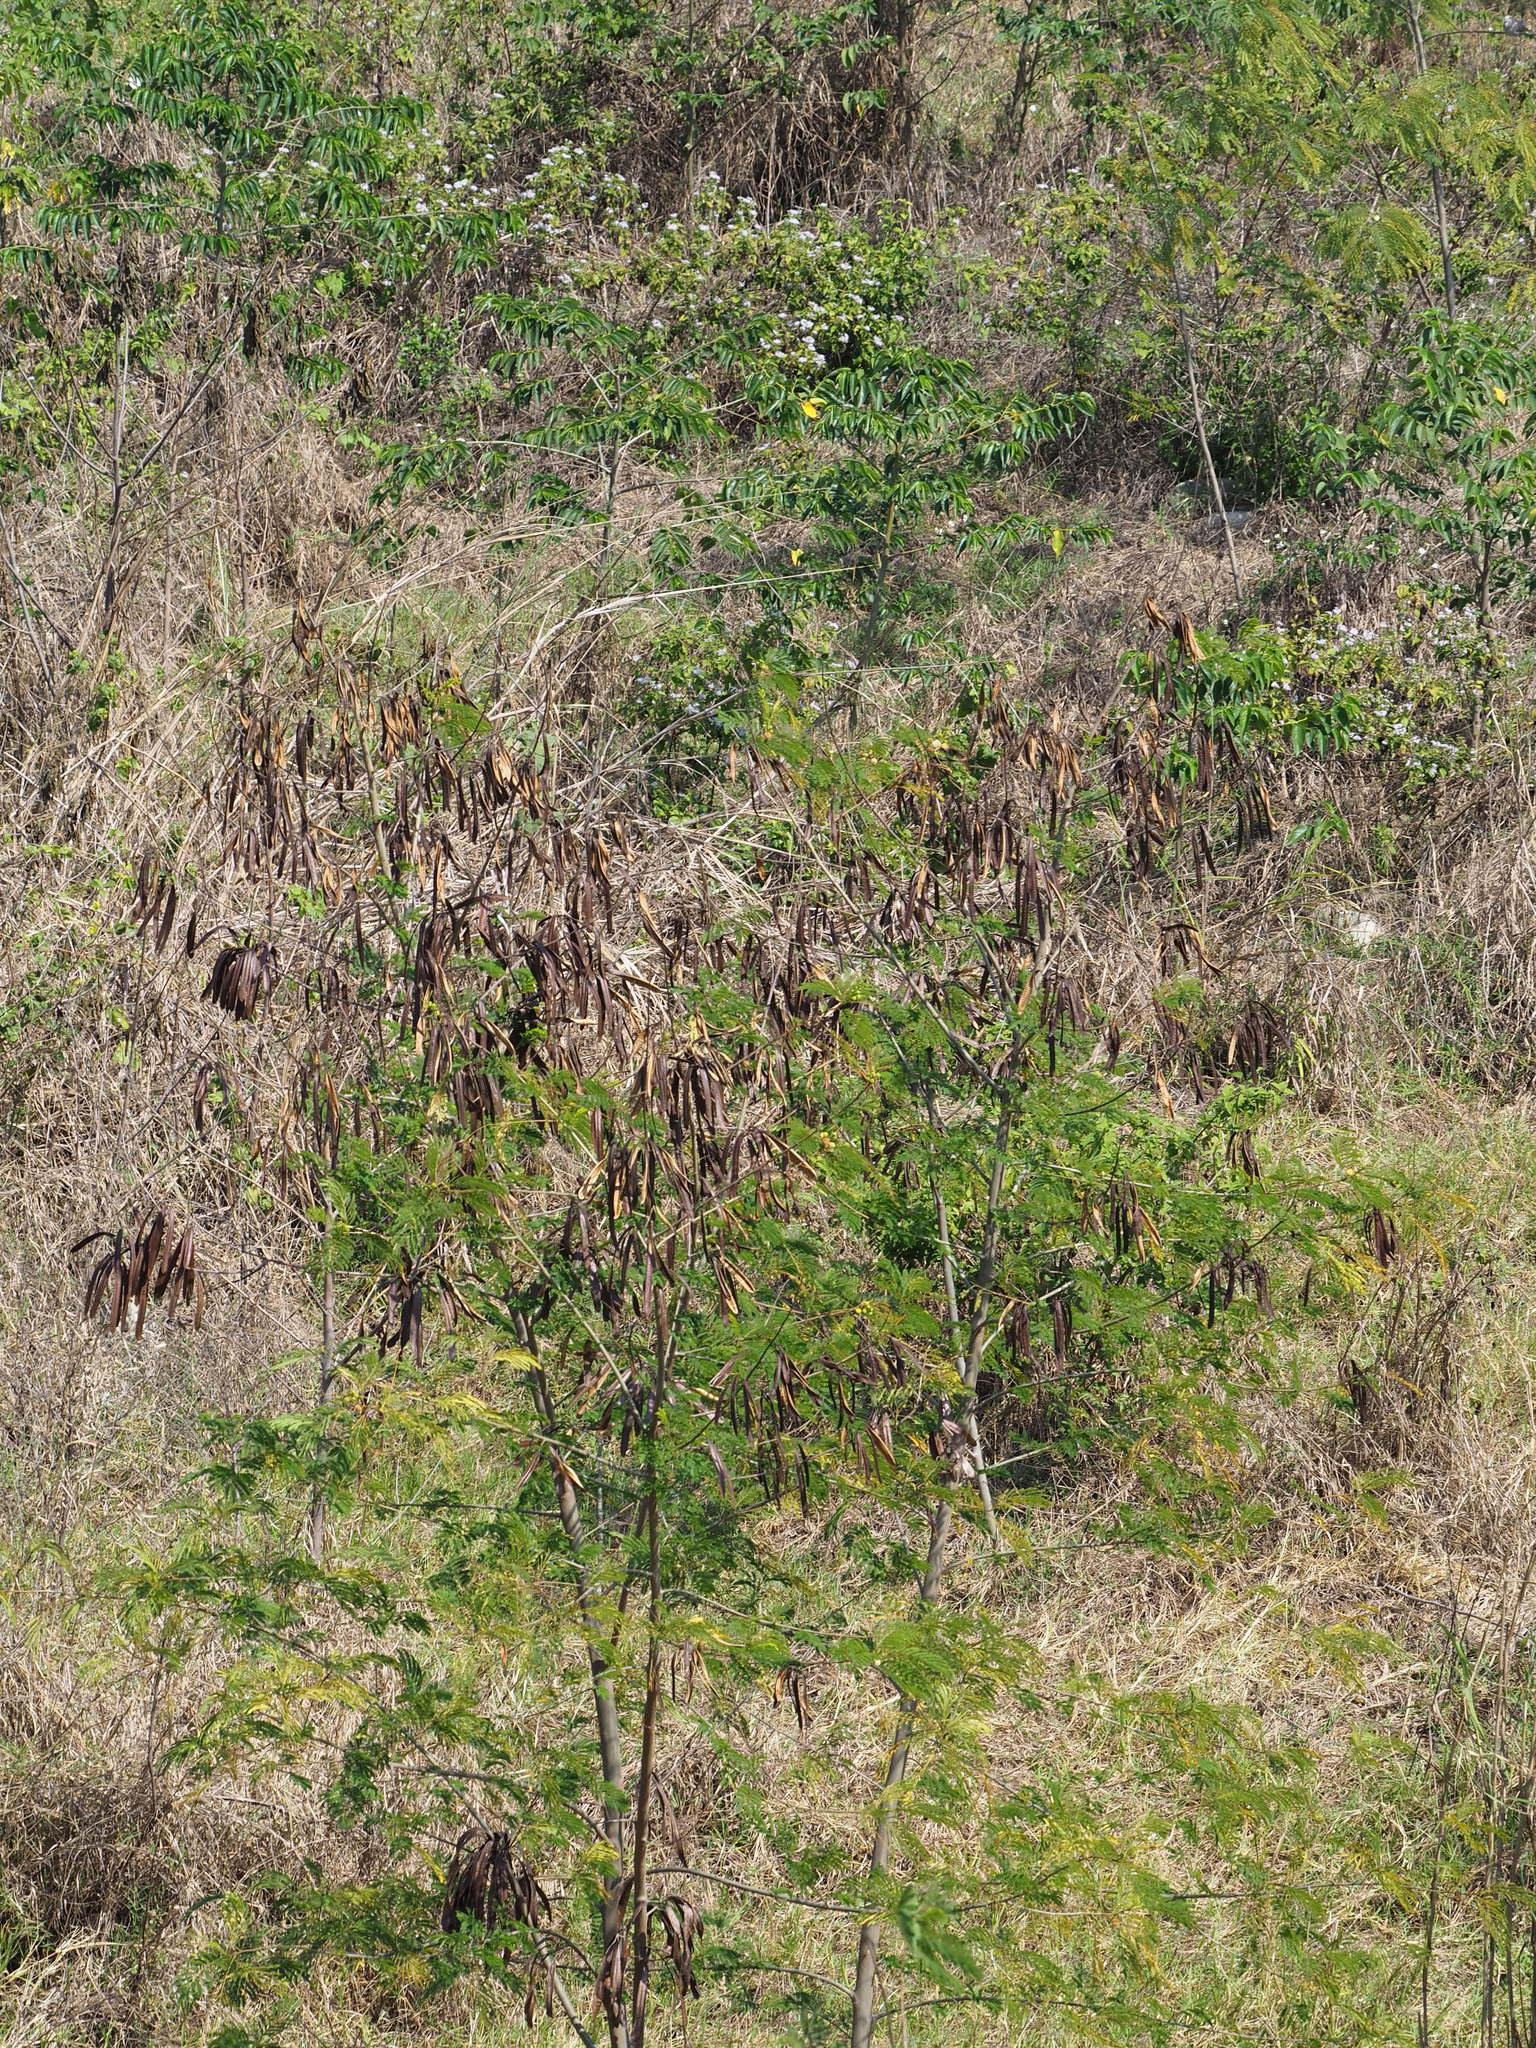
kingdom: Plantae
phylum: Tracheophyta
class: Magnoliopsida
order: Fabales
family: Fabaceae
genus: Leucaena
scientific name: Leucaena leucocephala
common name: White leadtree
